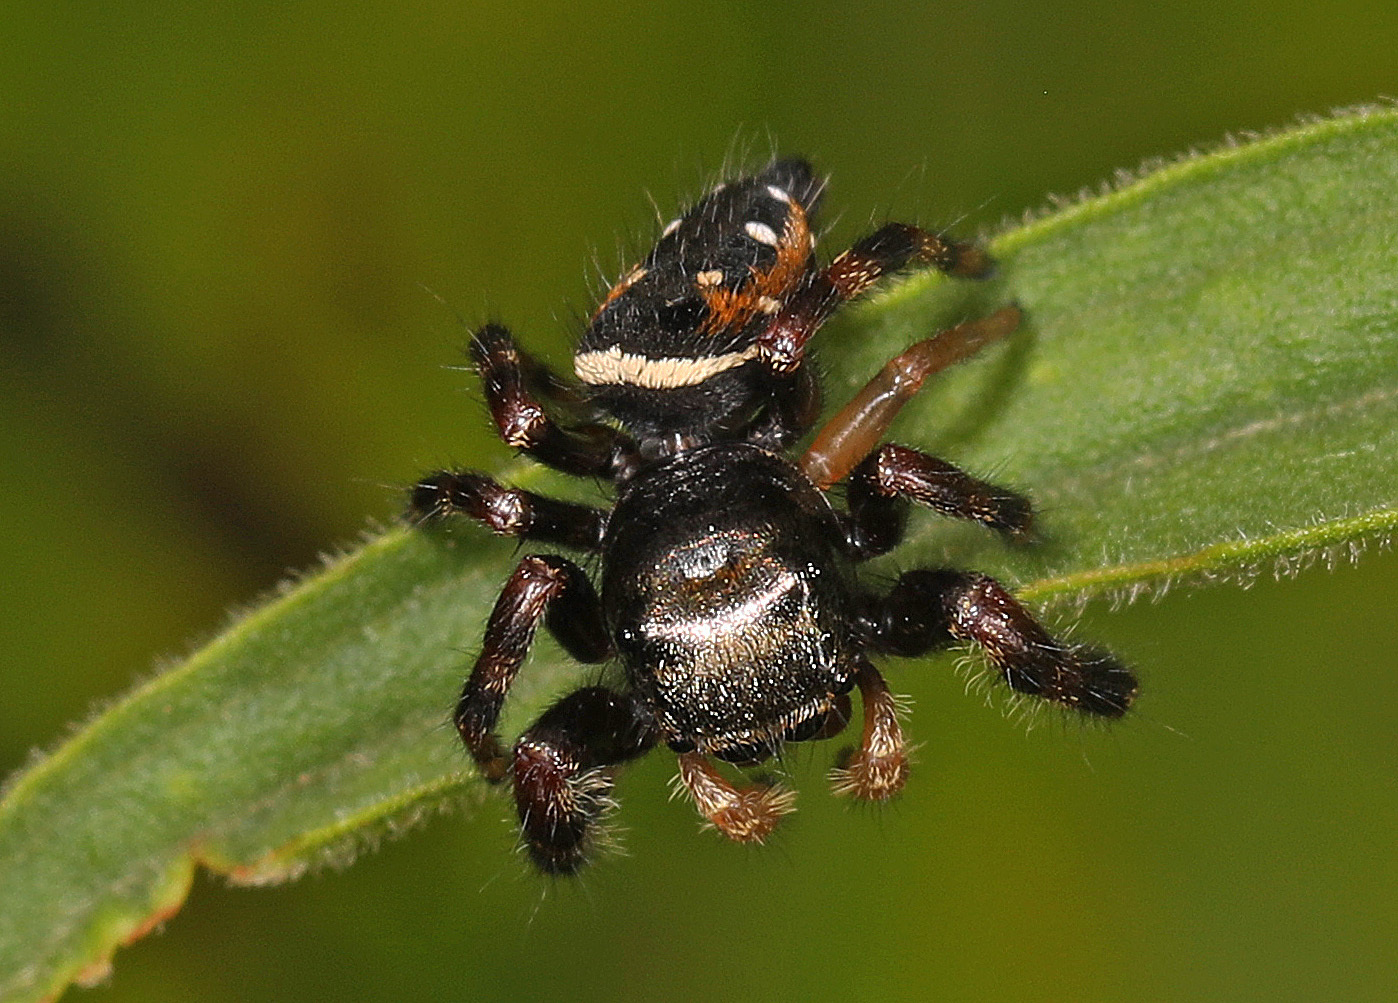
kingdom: Animalia
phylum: Arthropoda
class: Arachnida
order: Araneae
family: Salticidae
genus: Phidippus
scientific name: Phidippus clarus
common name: Brilliant jumping spider
